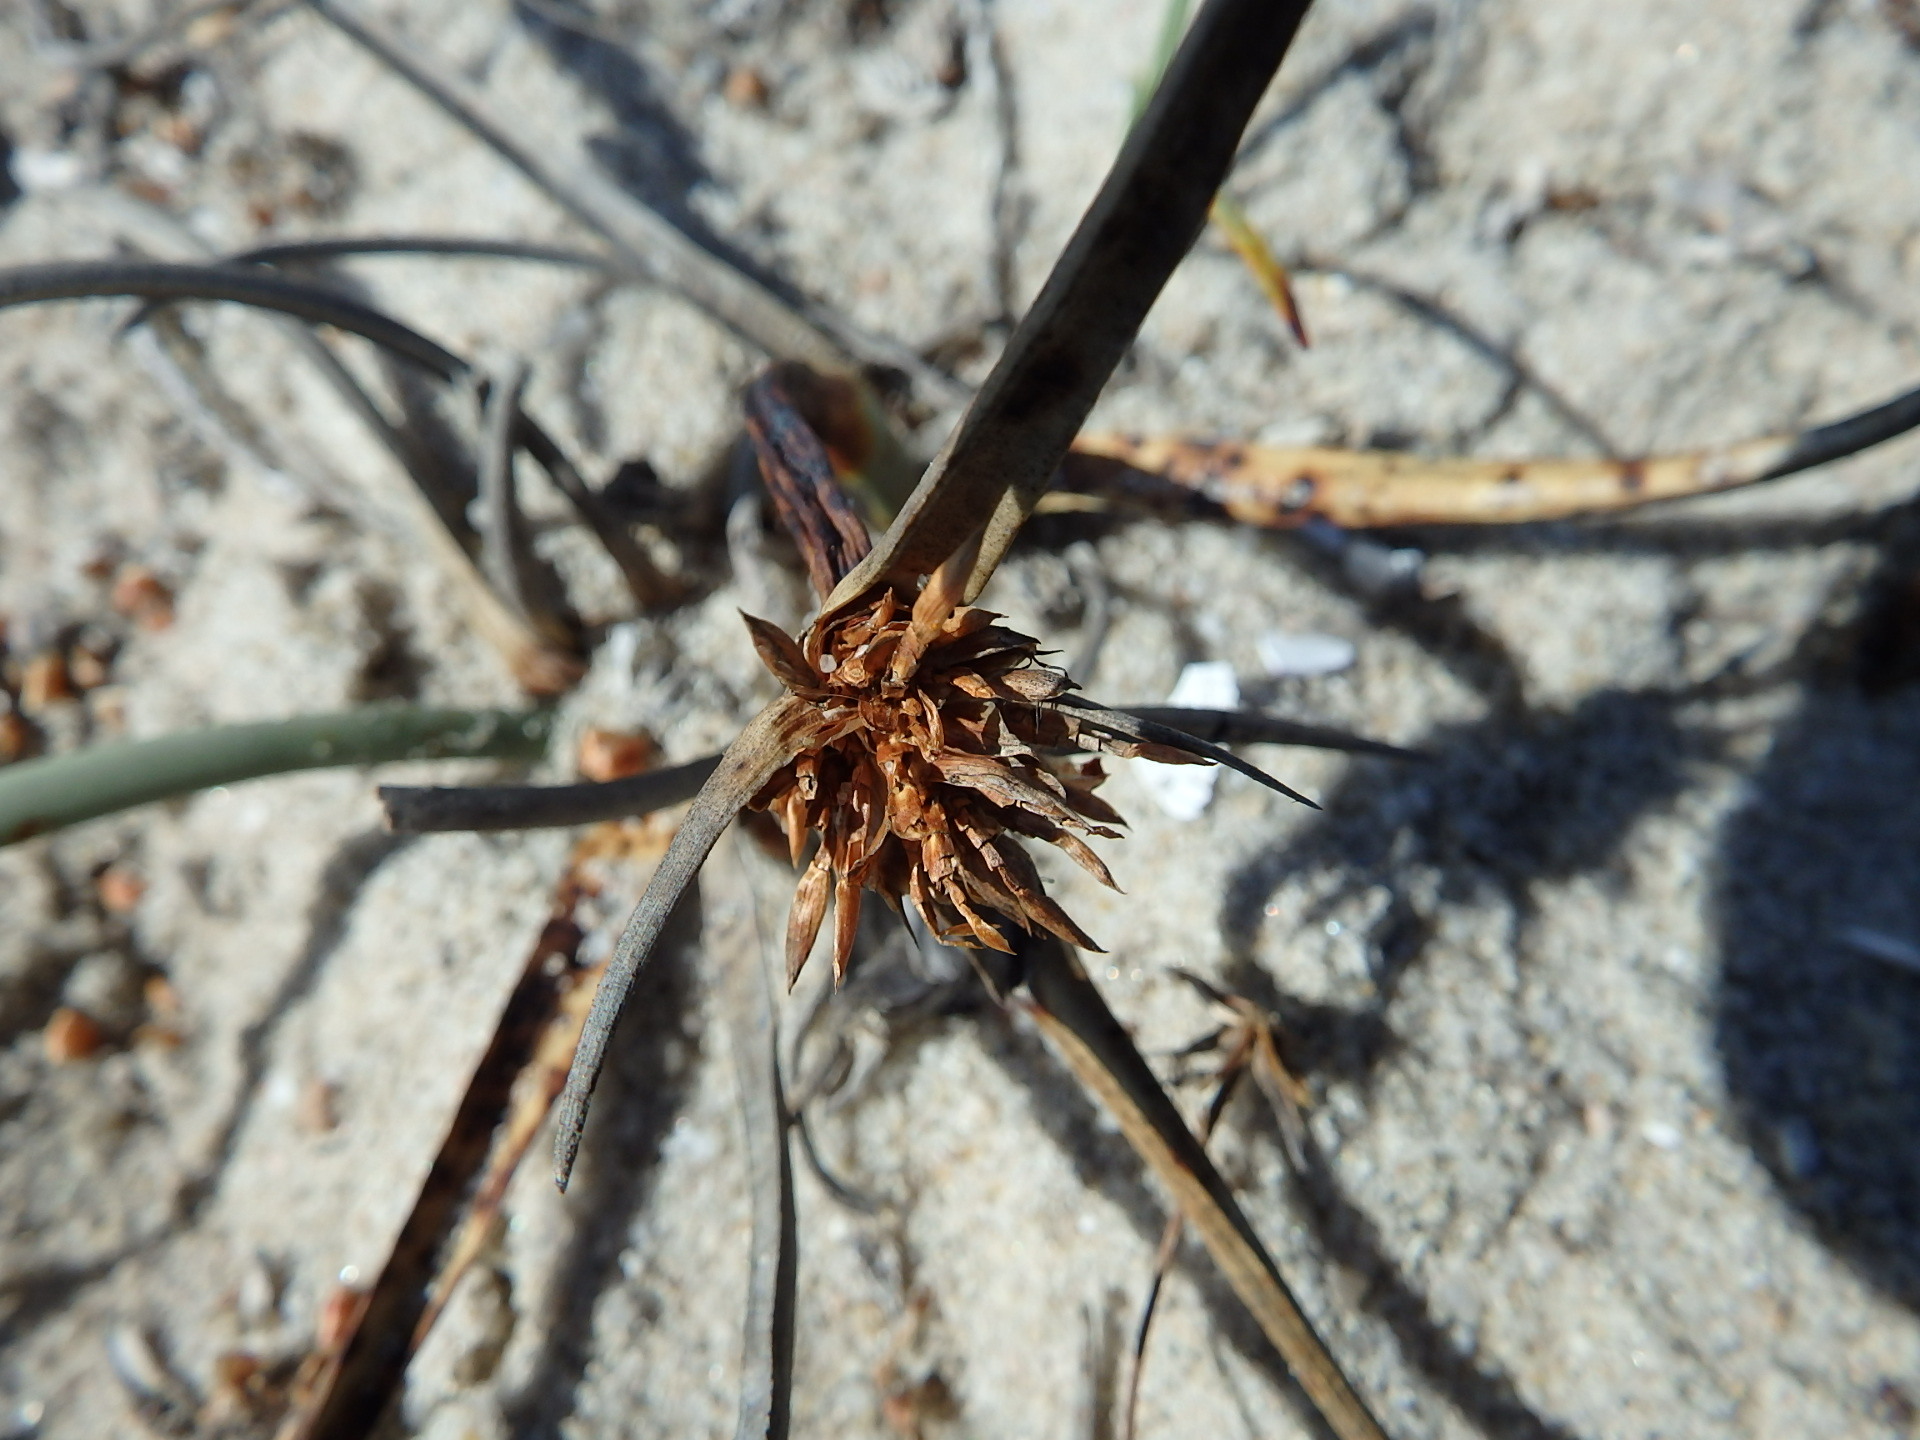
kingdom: Plantae
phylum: Tracheophyta
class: Liliopsida
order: Poales
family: Cyperaceae
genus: Cyperus
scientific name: Cyperus capitatus
